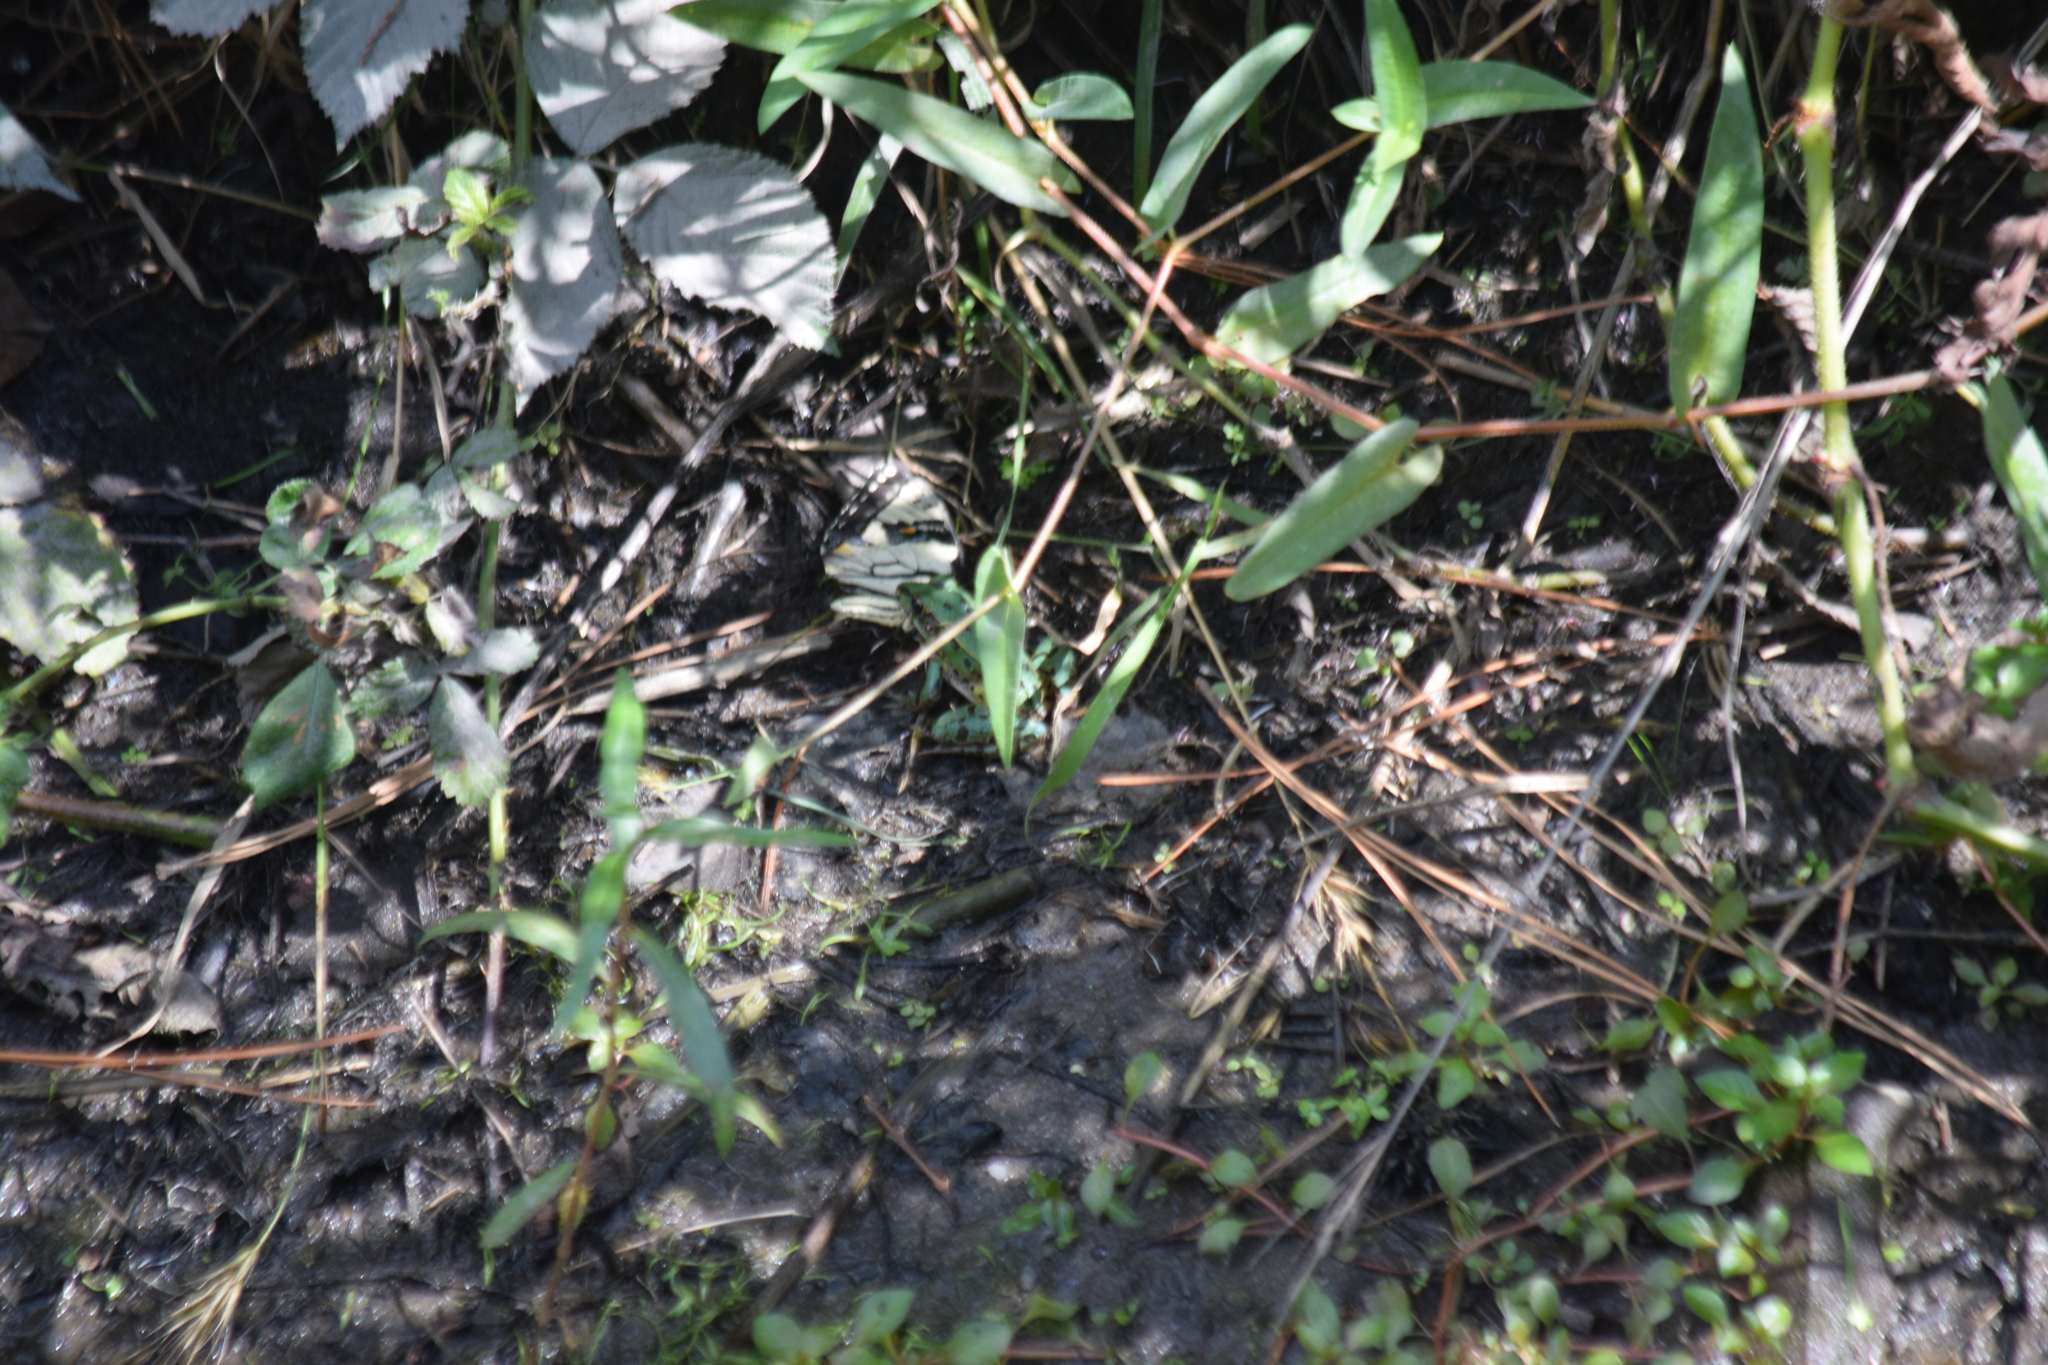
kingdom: Animalia
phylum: Arthropoda
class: Insecta
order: Lepidoptera
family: Papilionidae
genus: Papilio
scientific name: Papilio glaucus
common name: Tiger swallowtail
